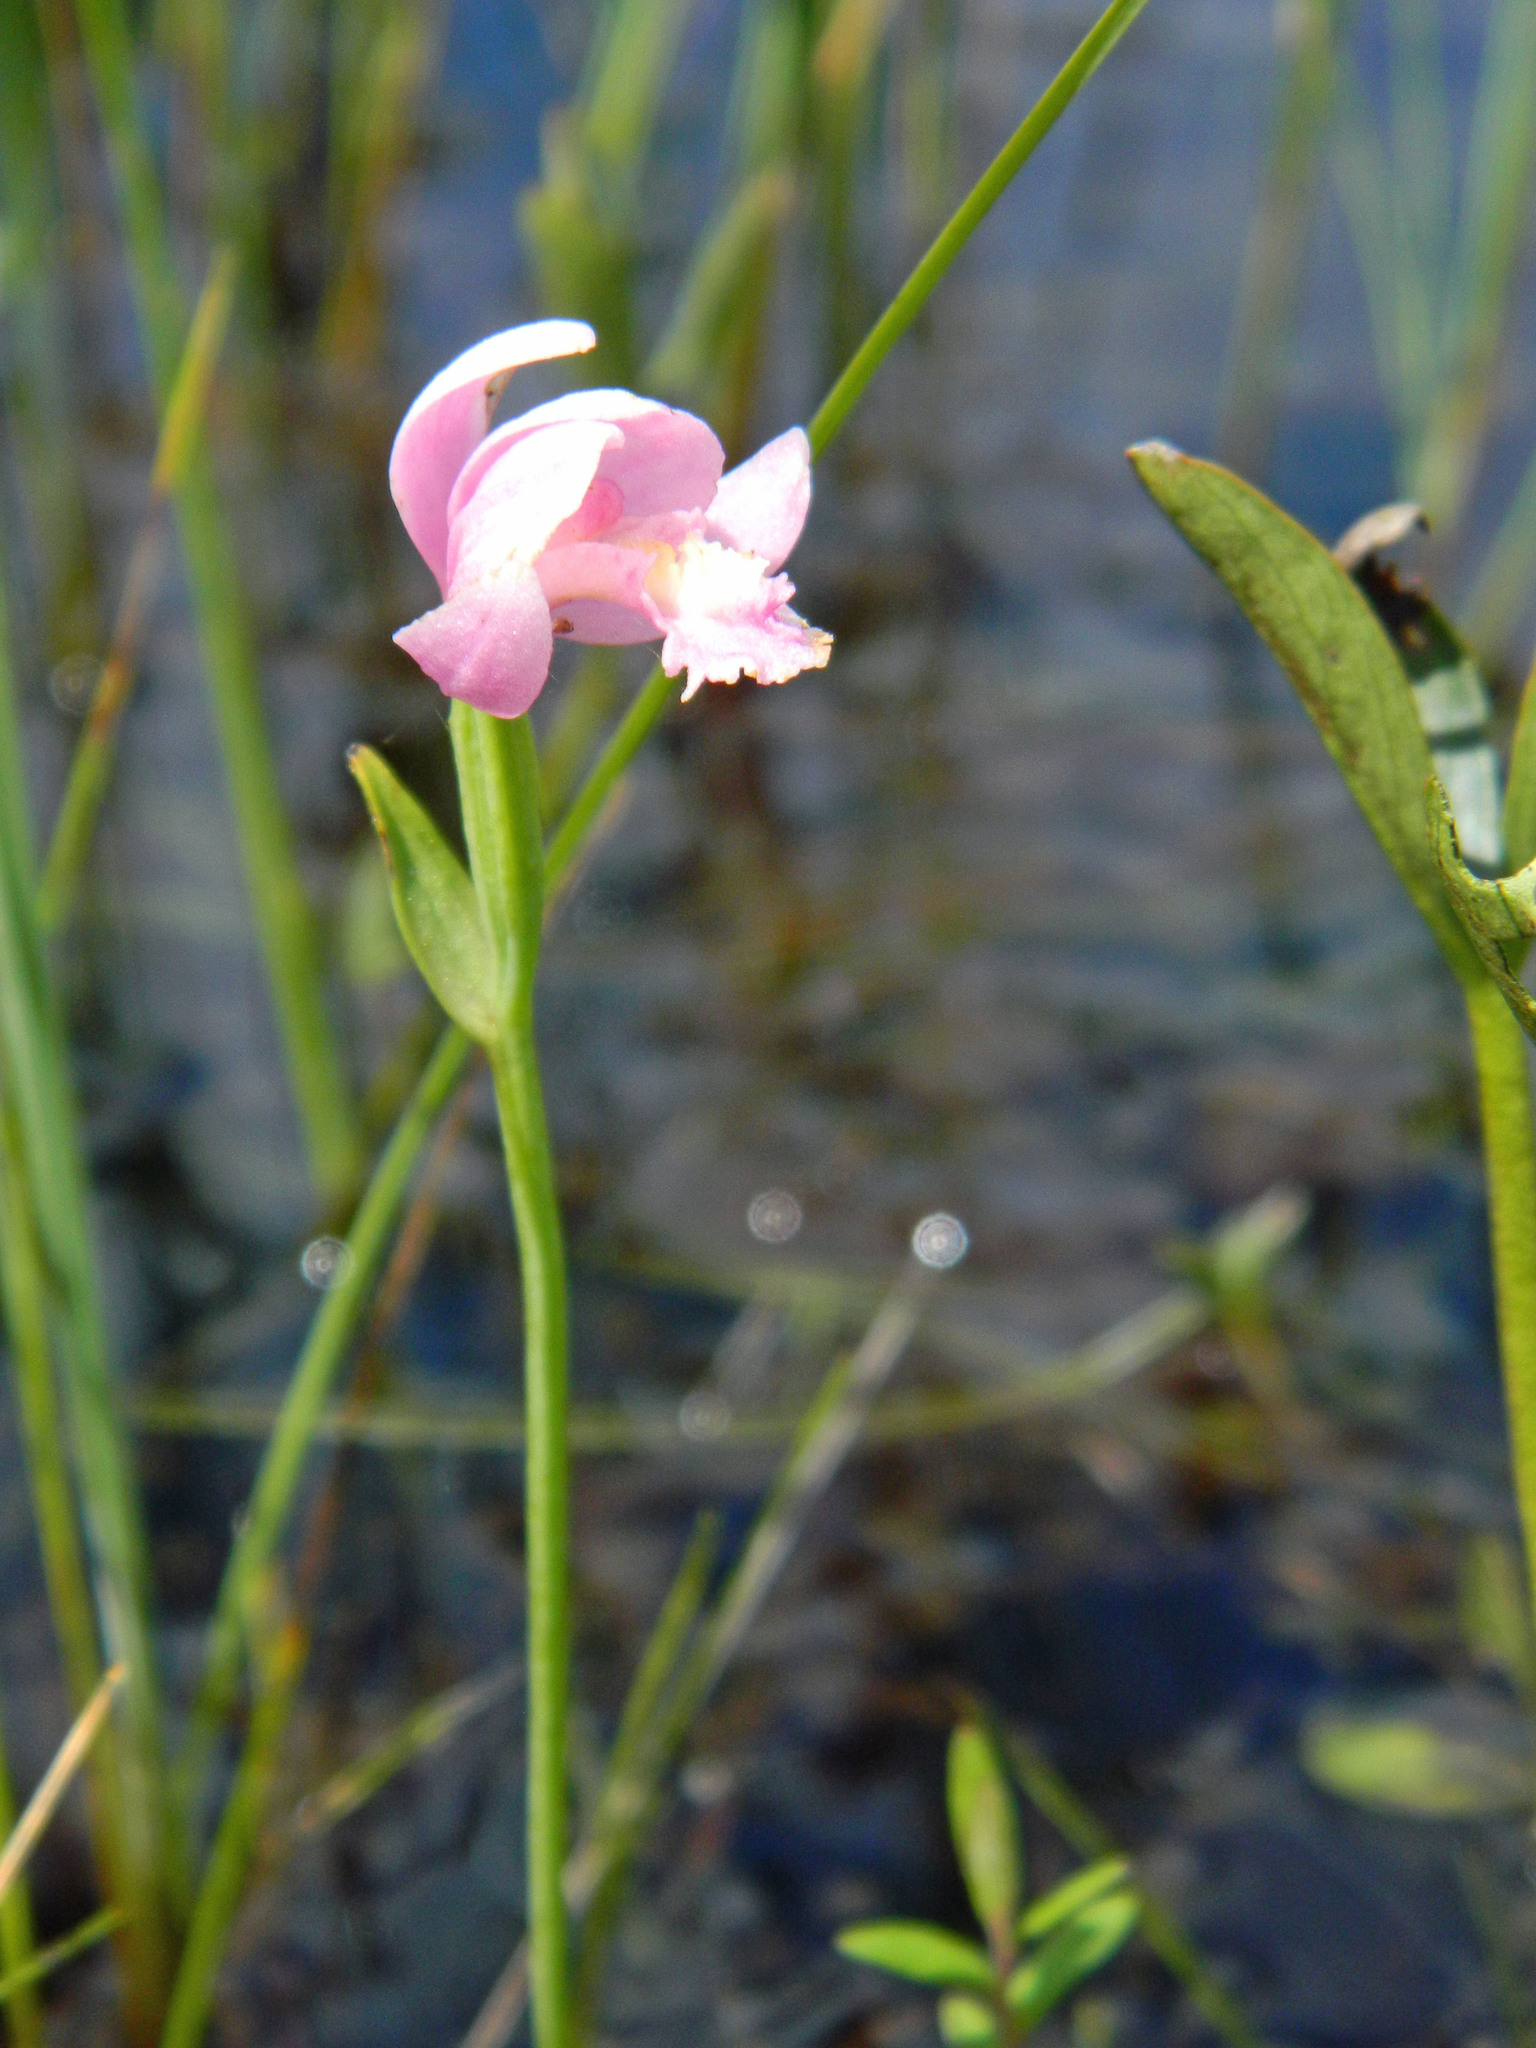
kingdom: Plantae
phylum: Tracheophyta
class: Liliopsida
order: Asparagales
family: Orchidaceae
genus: Pogonia
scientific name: Pogonia ophioglossoides
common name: Rose pogonia
